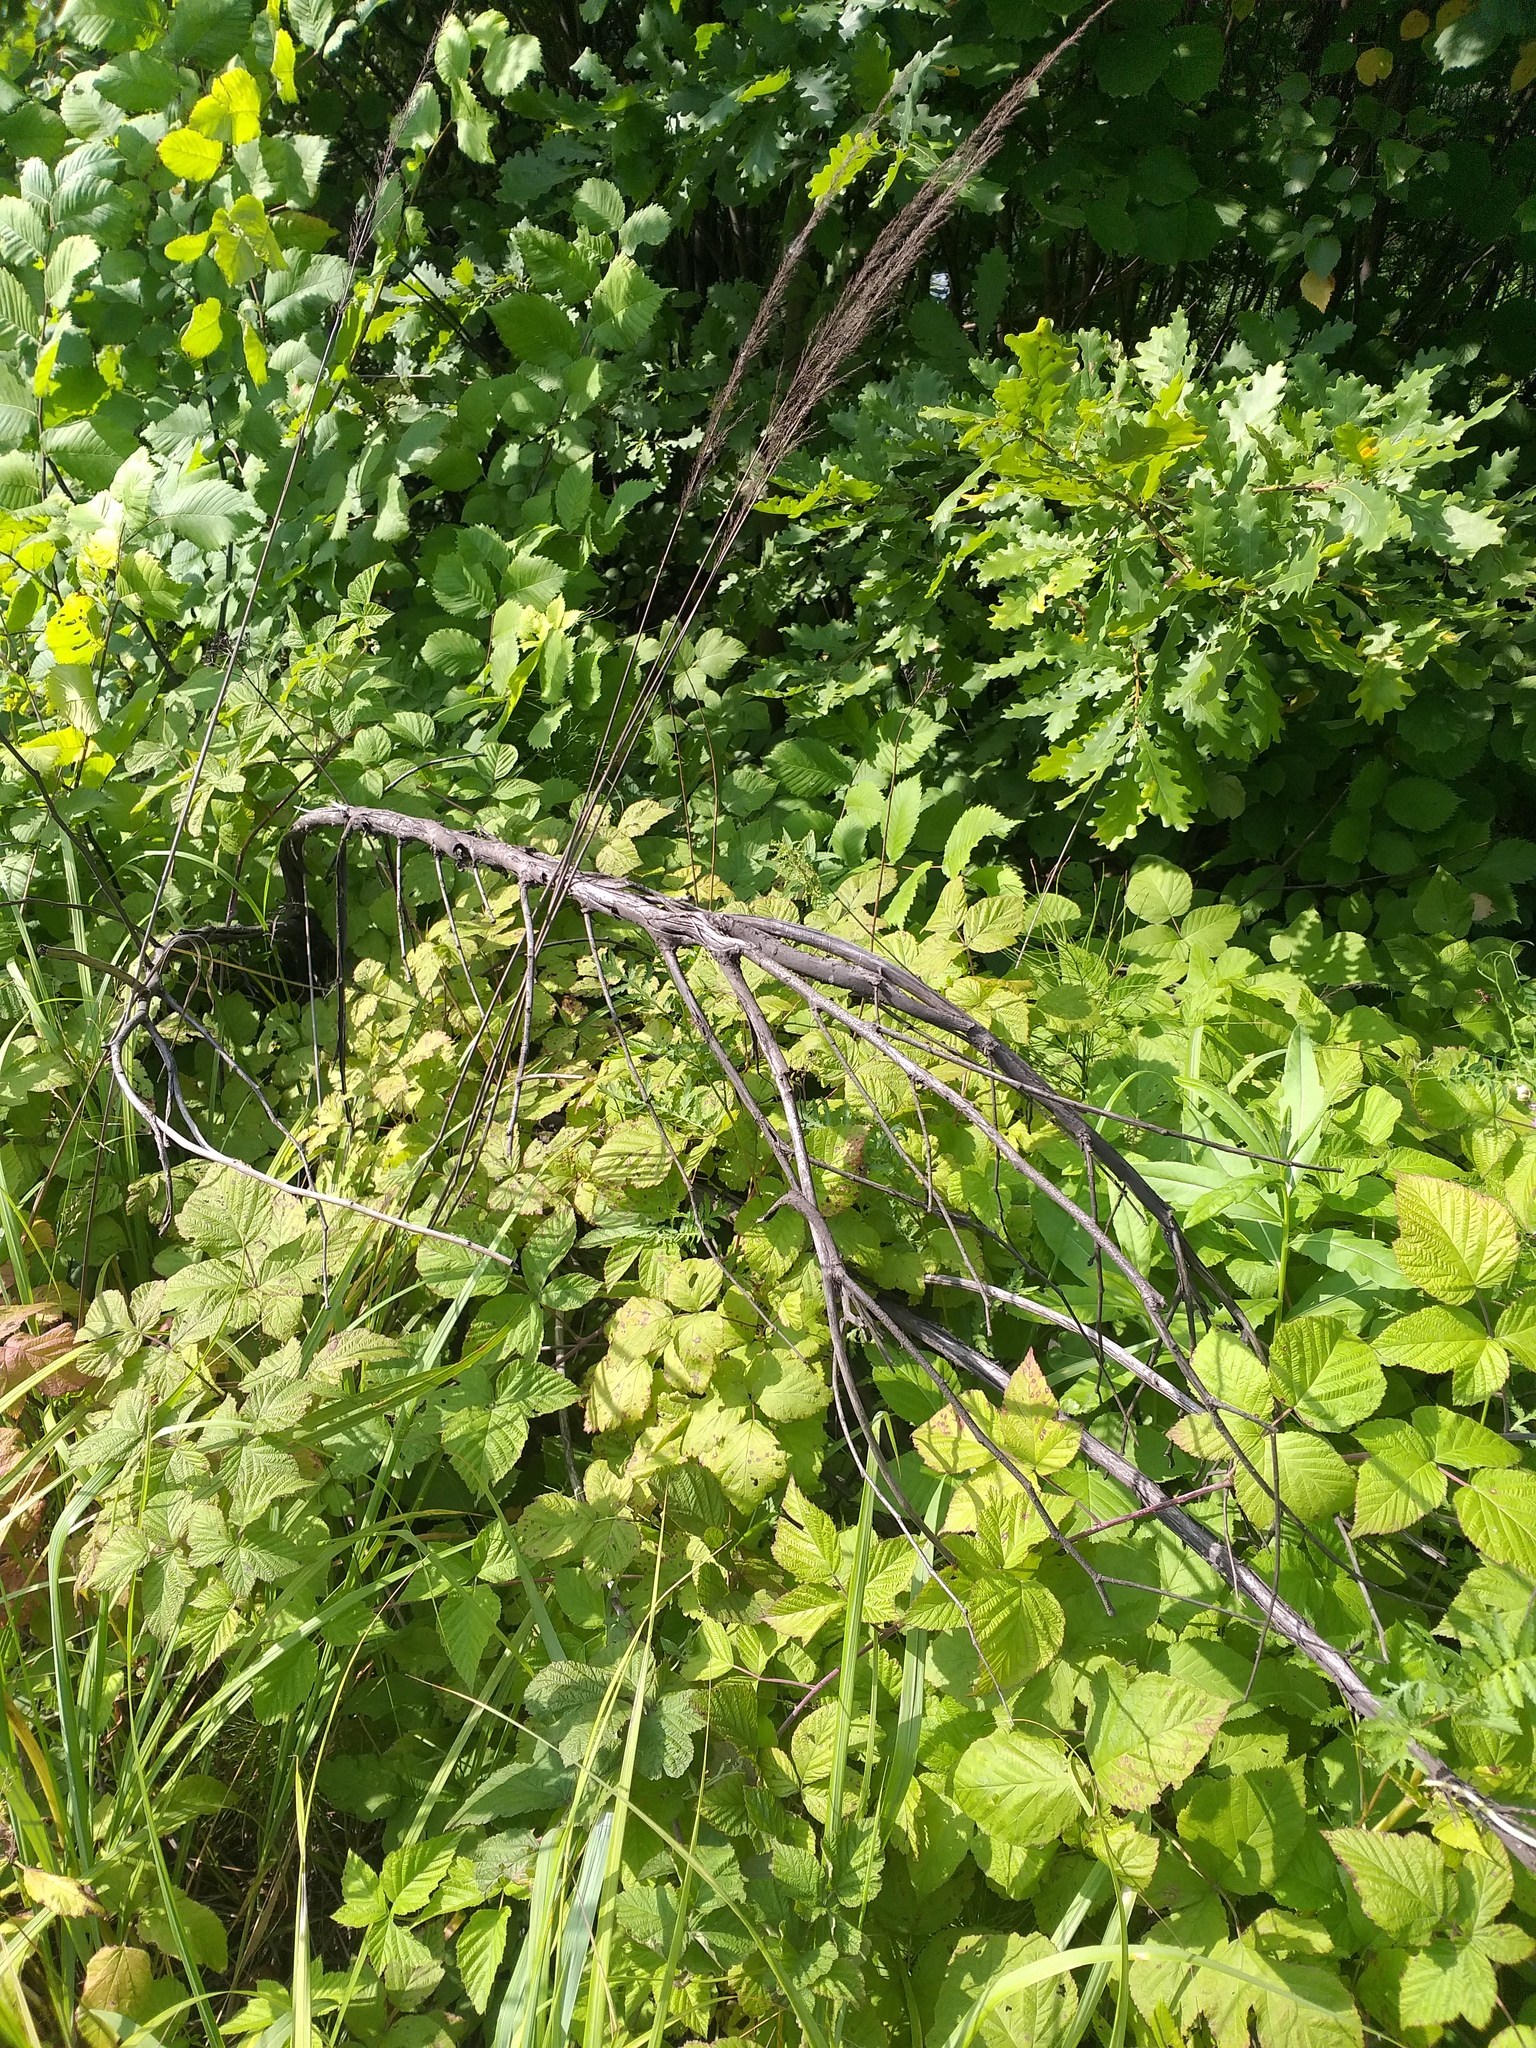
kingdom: Plantae
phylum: Tracheophyta
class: Magnoliopsida
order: Rosales
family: Rosaceae
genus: Rubus
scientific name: Rubus idaeoides
